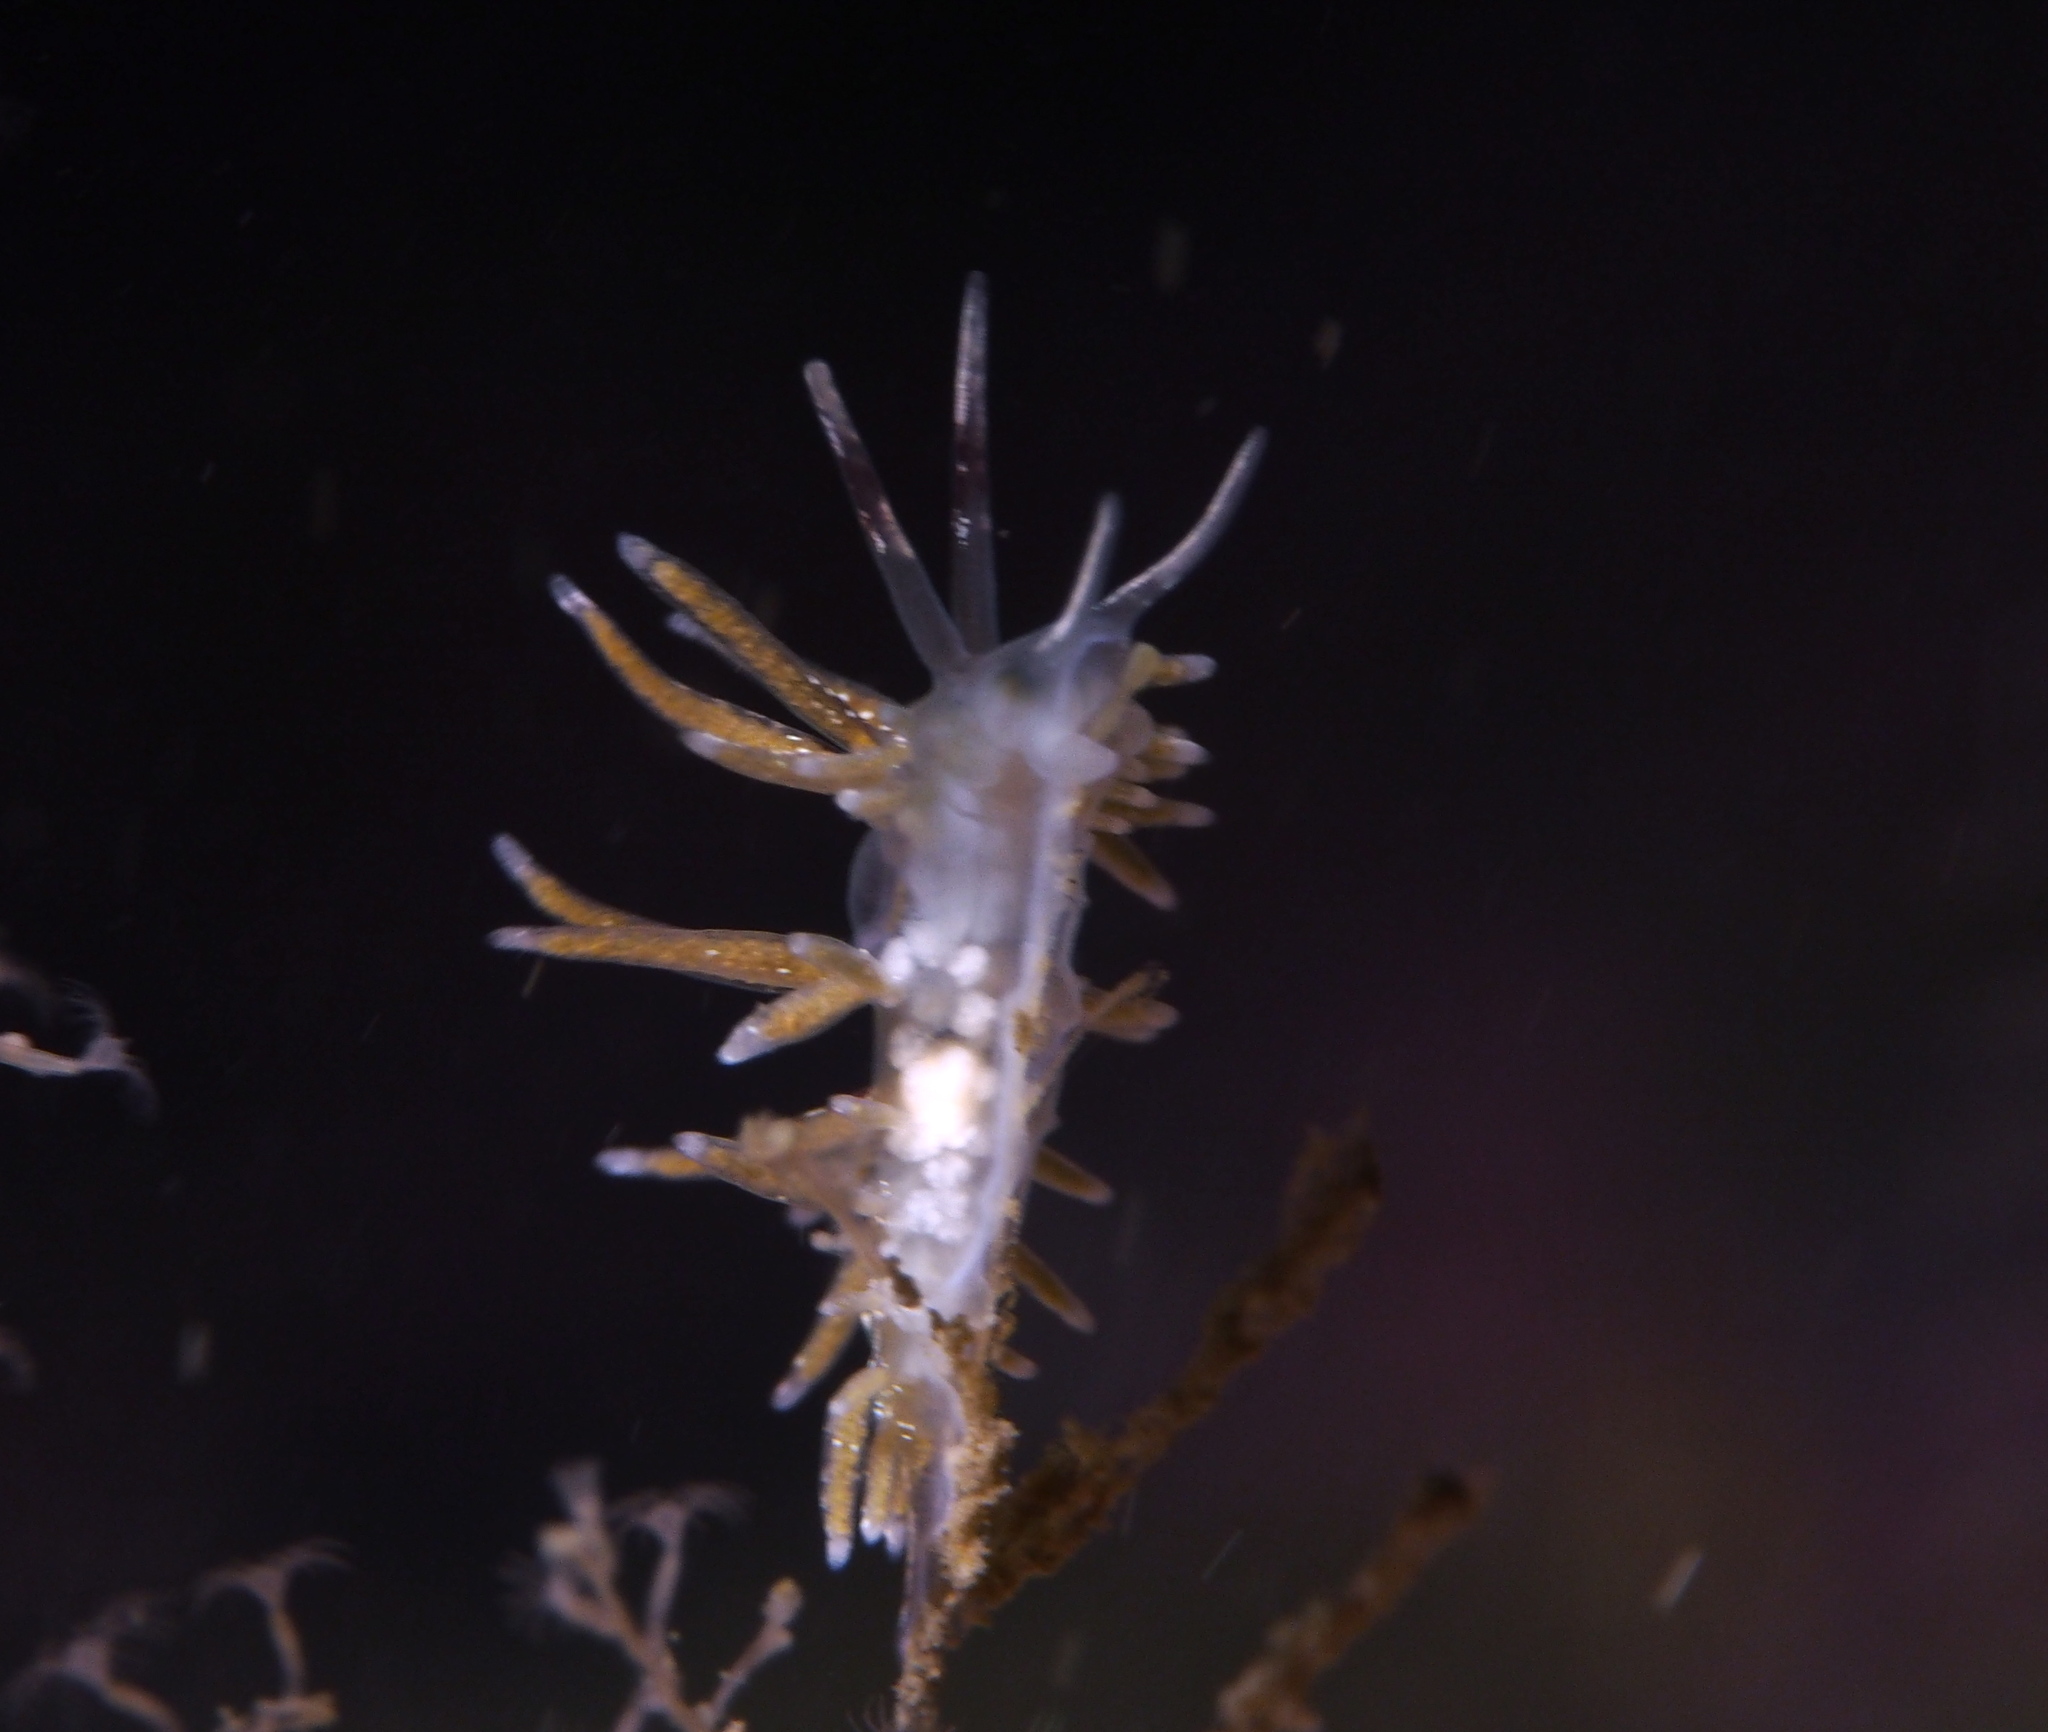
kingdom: Animalia
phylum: Mollusca
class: Gastropoda
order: Nudibranchia
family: Trinchesiidae
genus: Rubramoena
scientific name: Rubramoena rubescens
